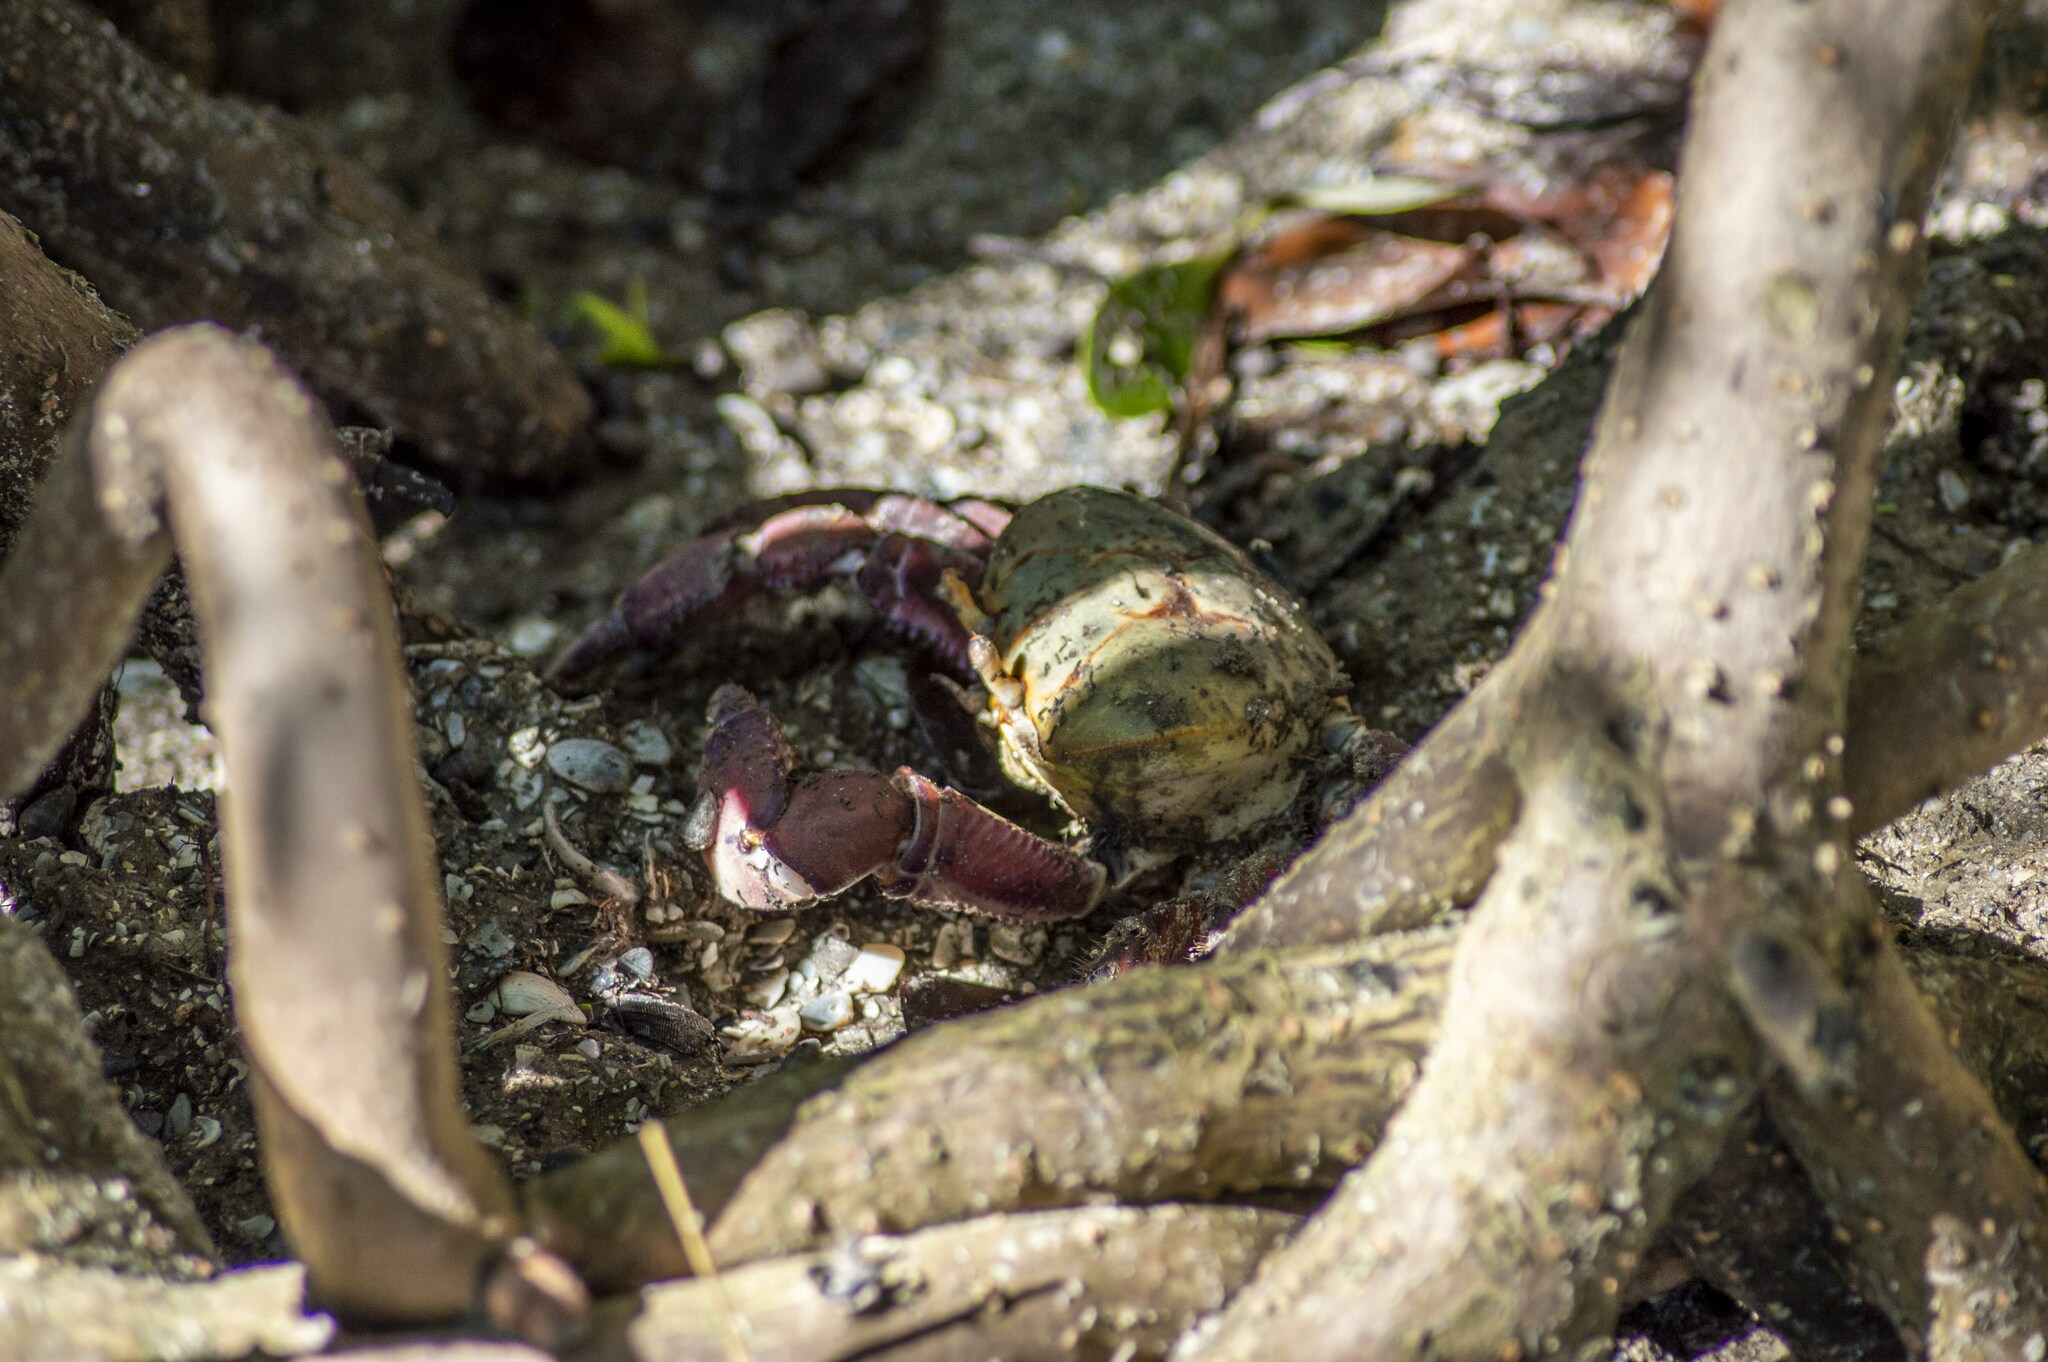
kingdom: Animalia
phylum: Arthropoda
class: Malacostraca
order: Decapoda
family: Ocypodidae
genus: Ucides
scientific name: Ucides cordatus
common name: Swamp ghost crab
